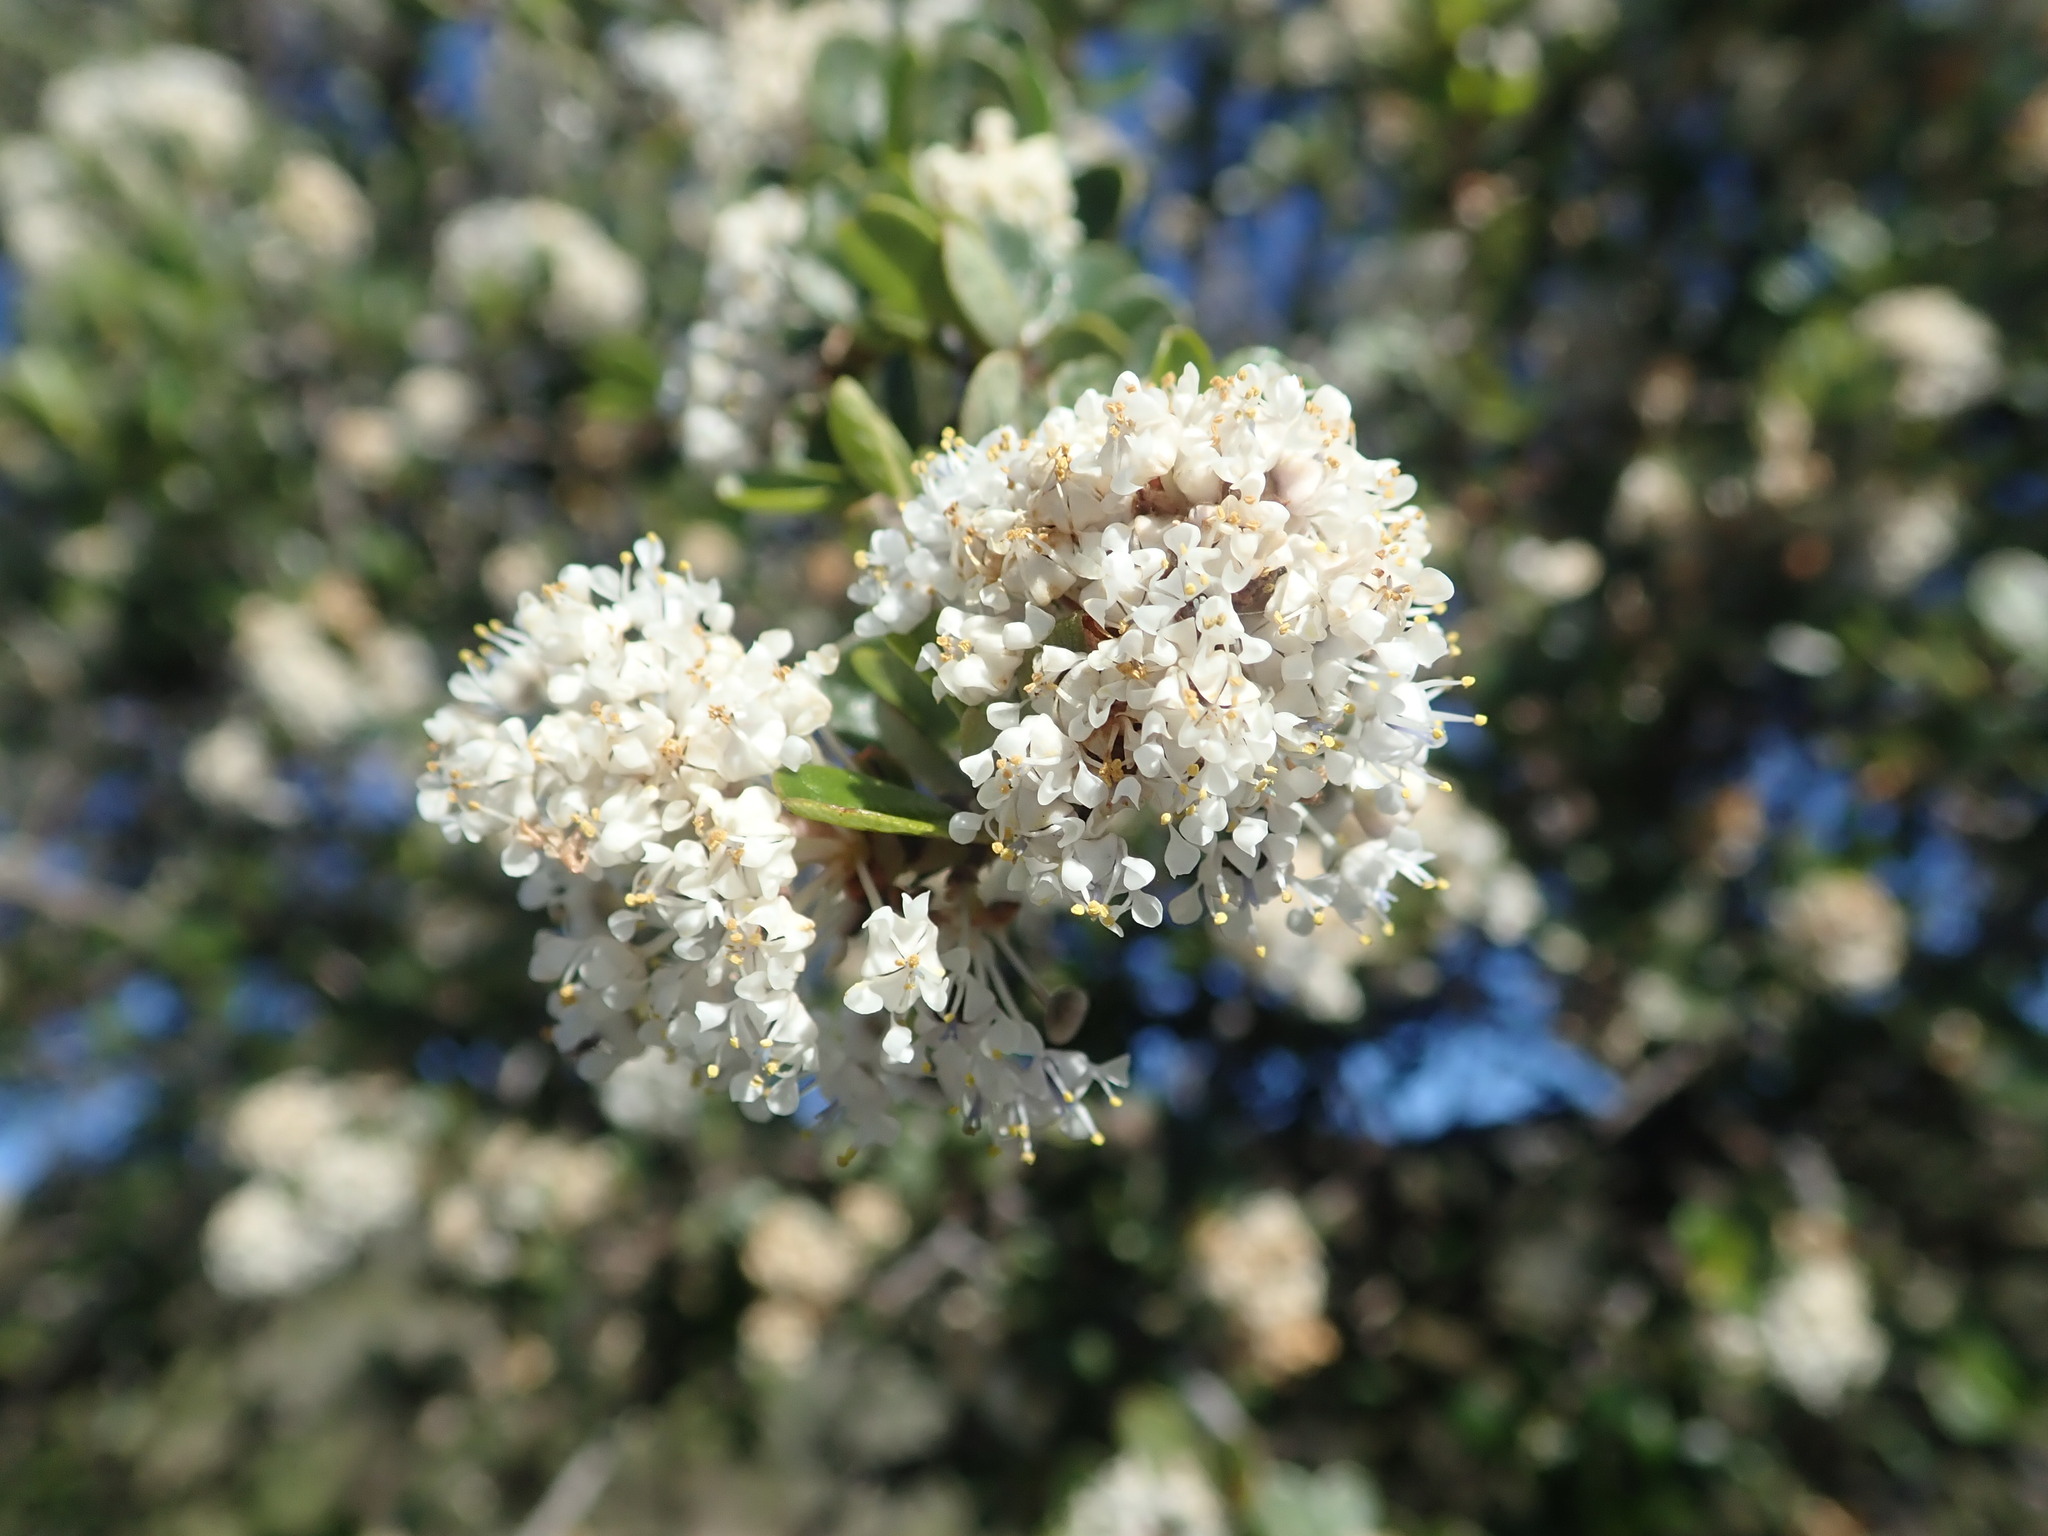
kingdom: Plantae
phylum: Tracheophyta
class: Magnoliopsida
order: Rosales
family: Rhamnaceae
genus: Ceanothus
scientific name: Ceanothus cuneatus
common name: Cuneate ceanothus
